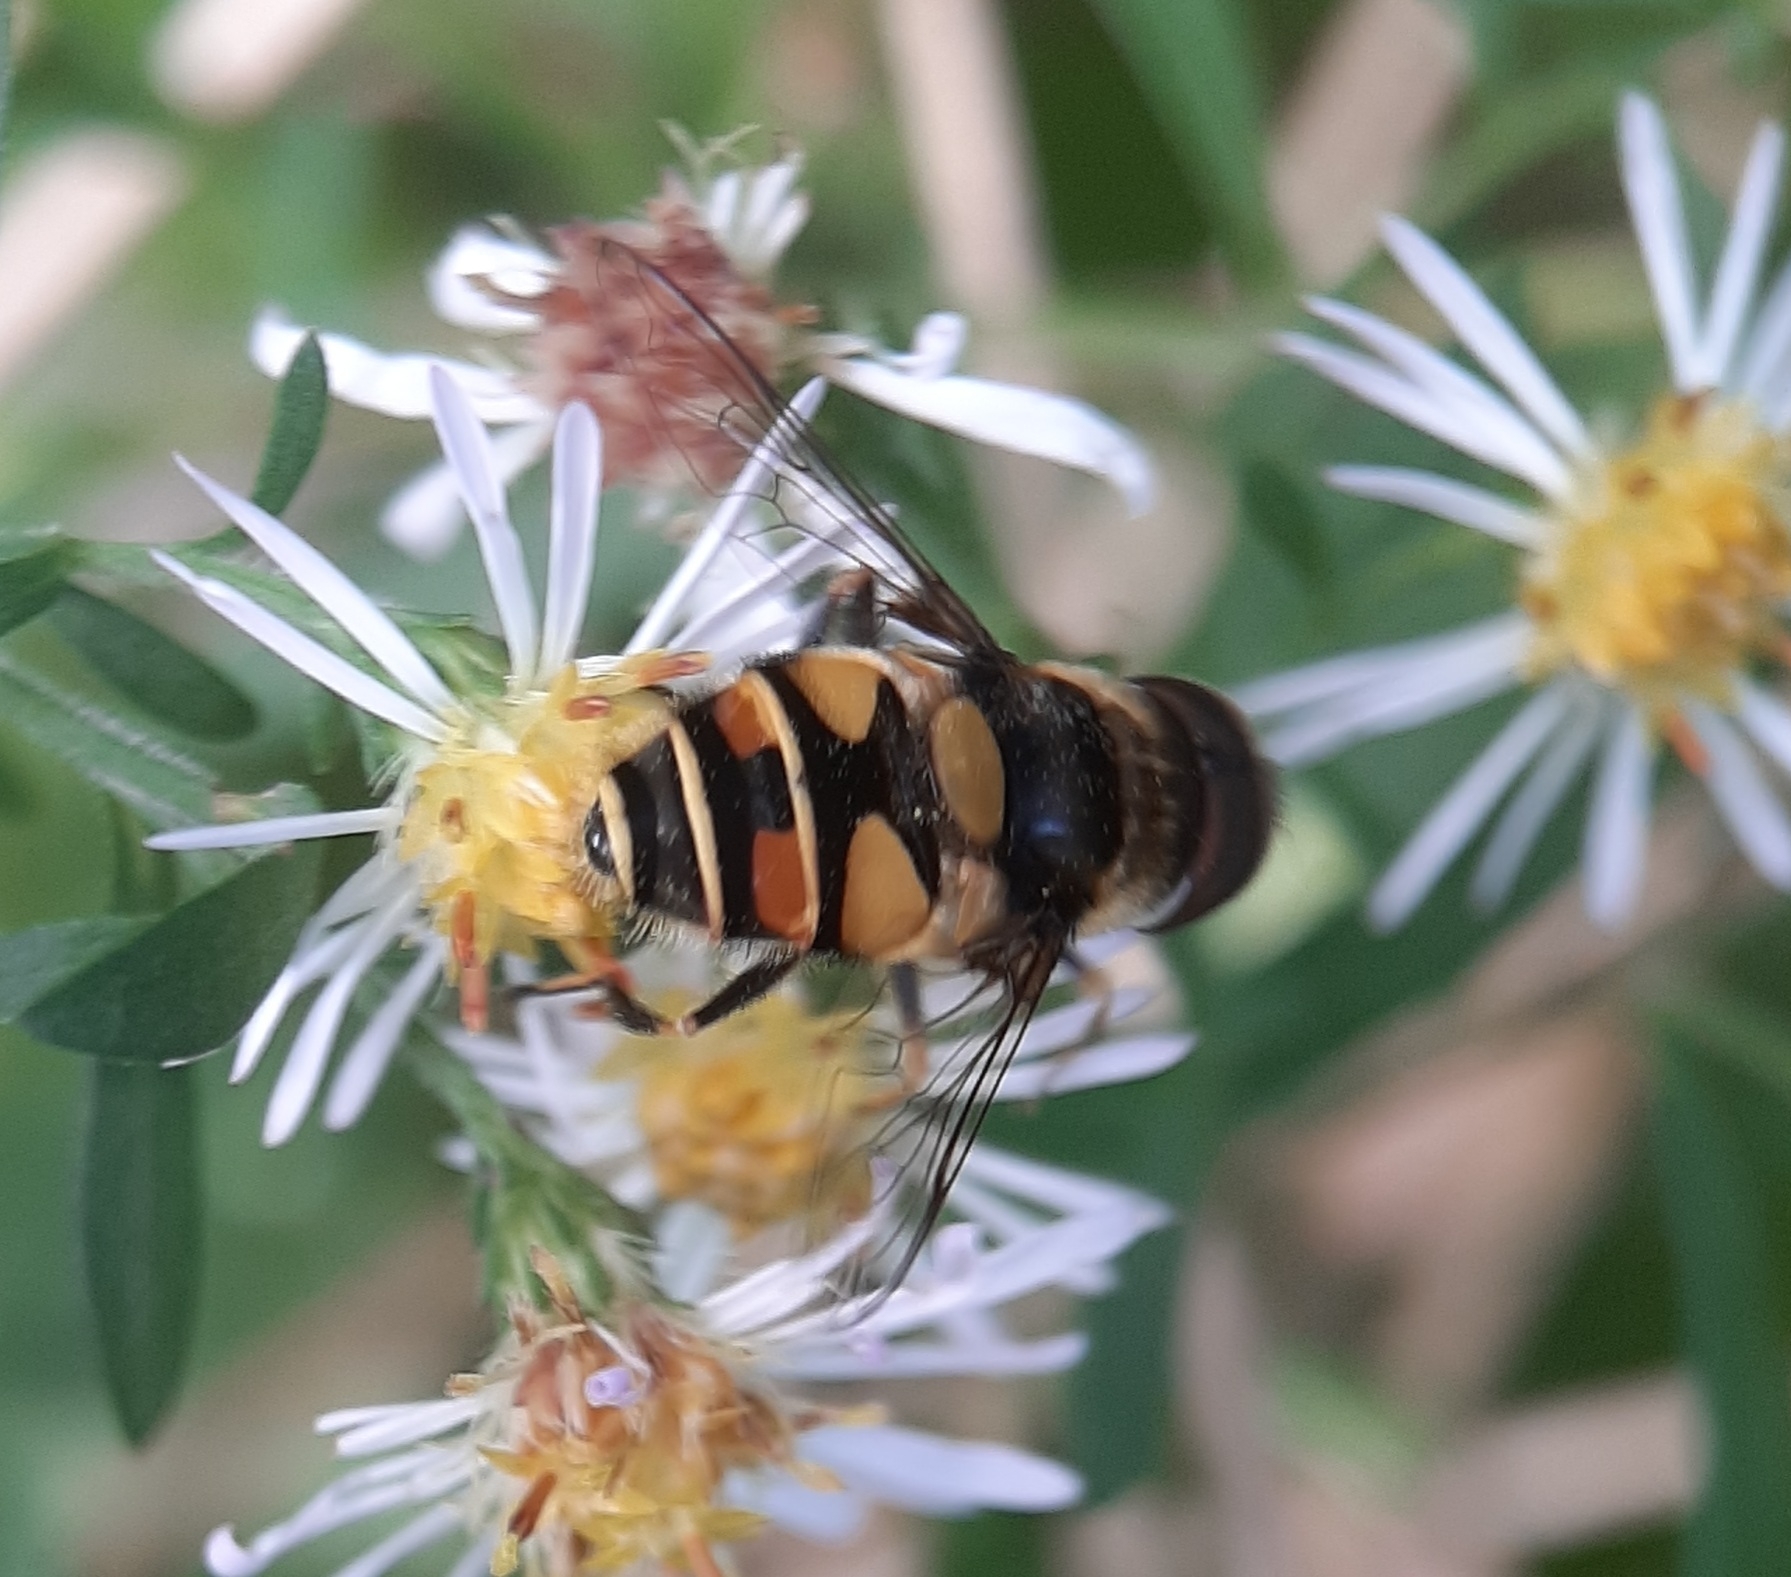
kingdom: Animalia
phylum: Arthropoda
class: Insecta
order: Diptera
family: Syrphidae
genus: Eristalis
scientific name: Eristalis transversa
